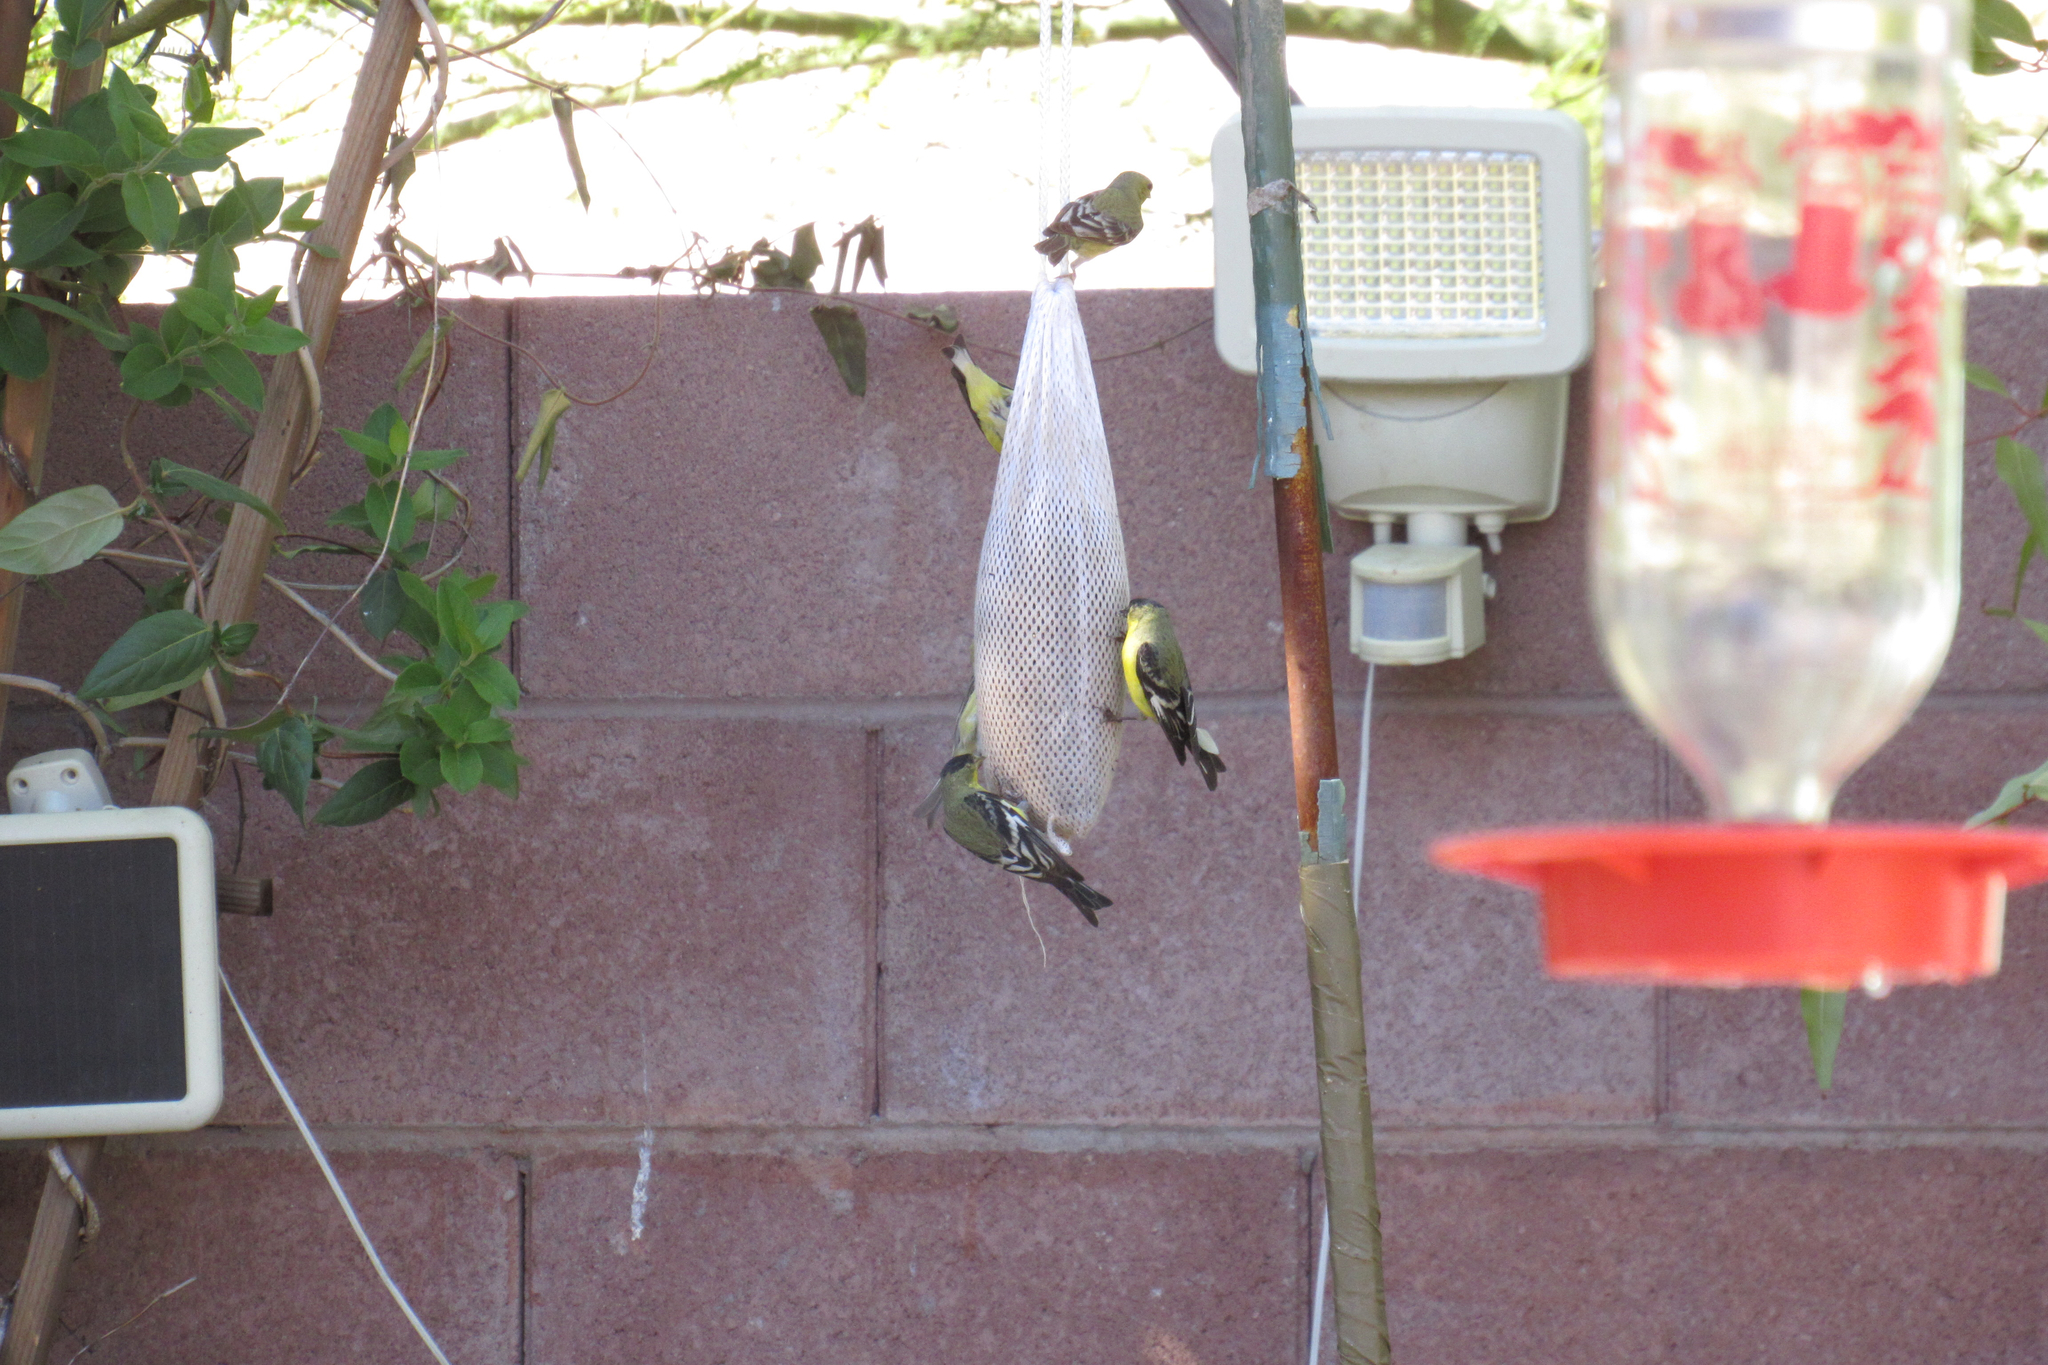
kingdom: Animalia
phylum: Chordata
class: Aves
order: Passeriformes
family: Fringillidae
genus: Spinus
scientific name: Spinus psaltria
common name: Lesser goldfinch
